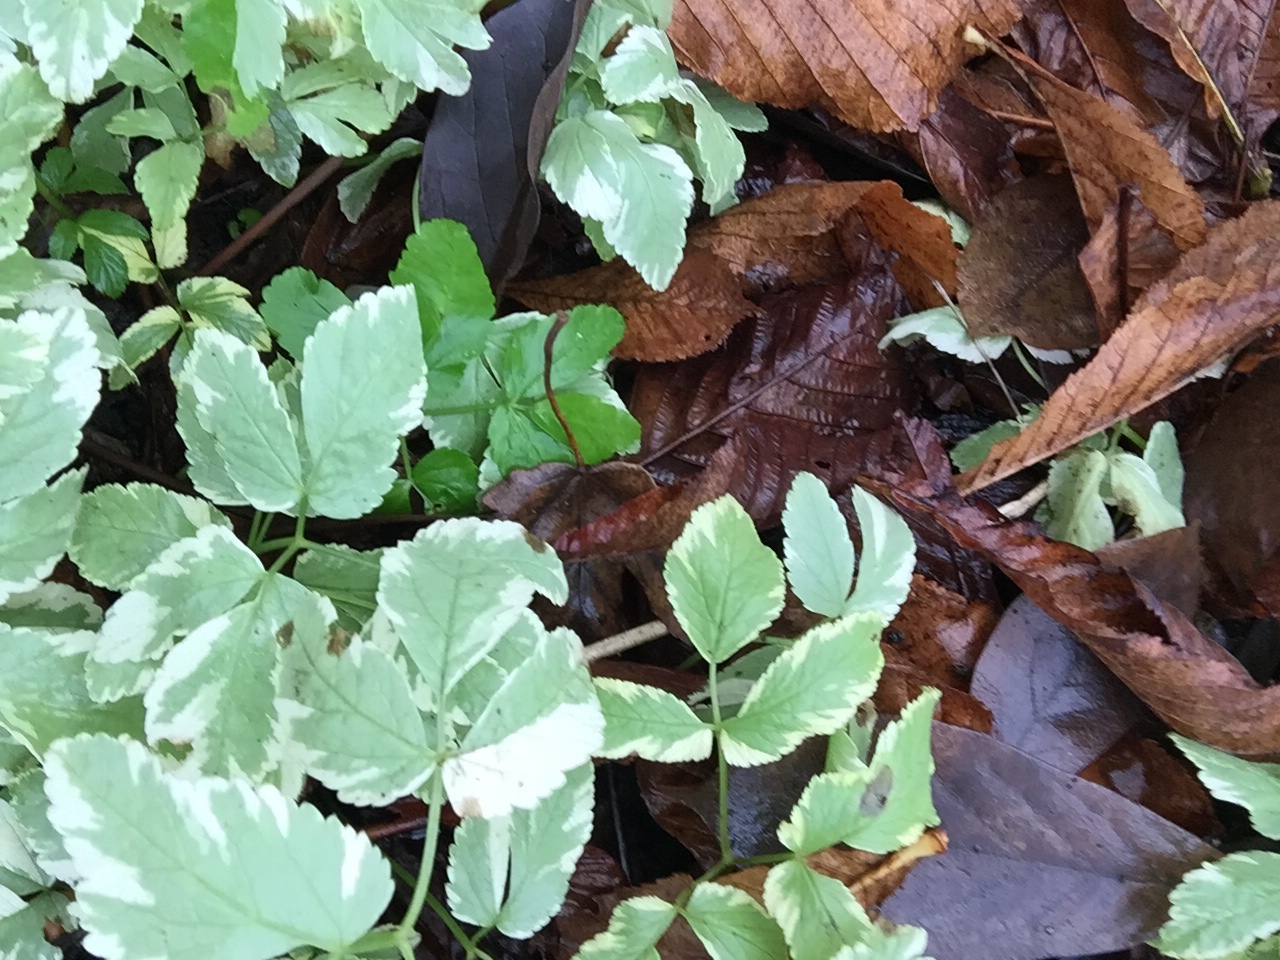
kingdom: Plantae
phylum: Tracheophyta
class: Magnoliopsida
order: Apiales
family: Apiaceae
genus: Aegopodium
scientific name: Aegopodium podagraria
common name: Ground-elder
